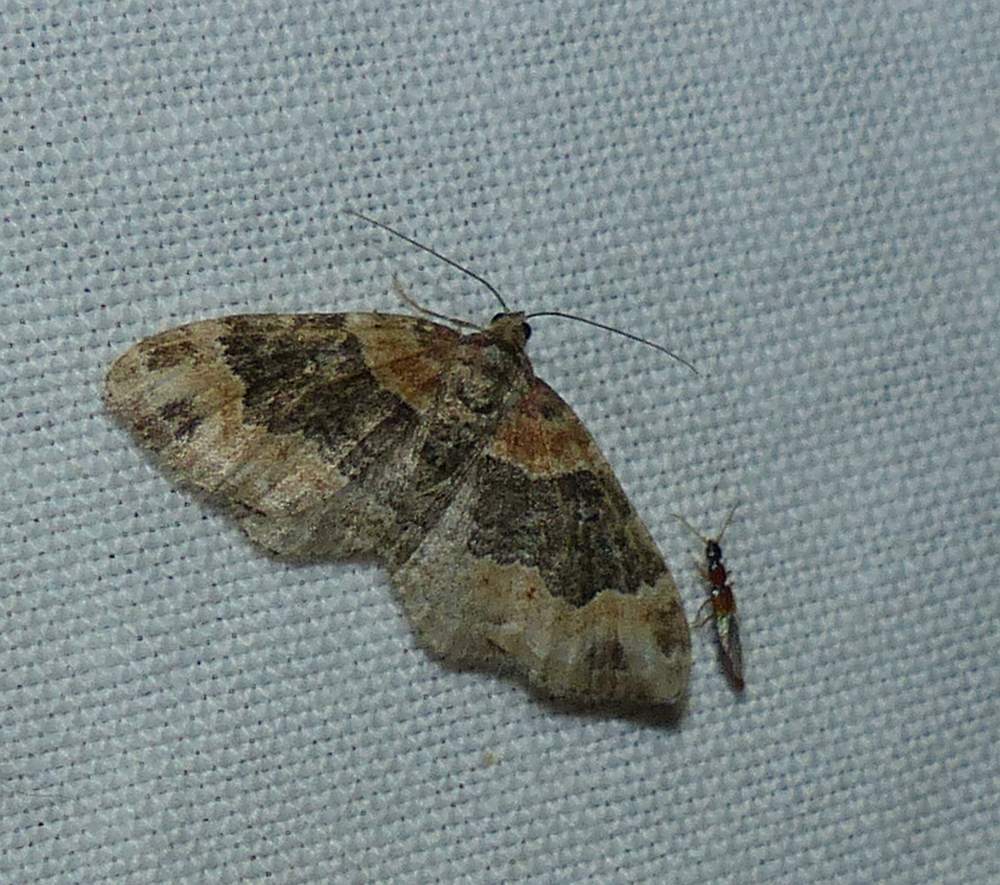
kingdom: Animalia
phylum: Arthropoda
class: Insecta
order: Lepidoptera
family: Geometridae
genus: Xanthorhoe
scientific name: Xanthorhoe ferrugata
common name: Dark-barred twin-spot carpet
